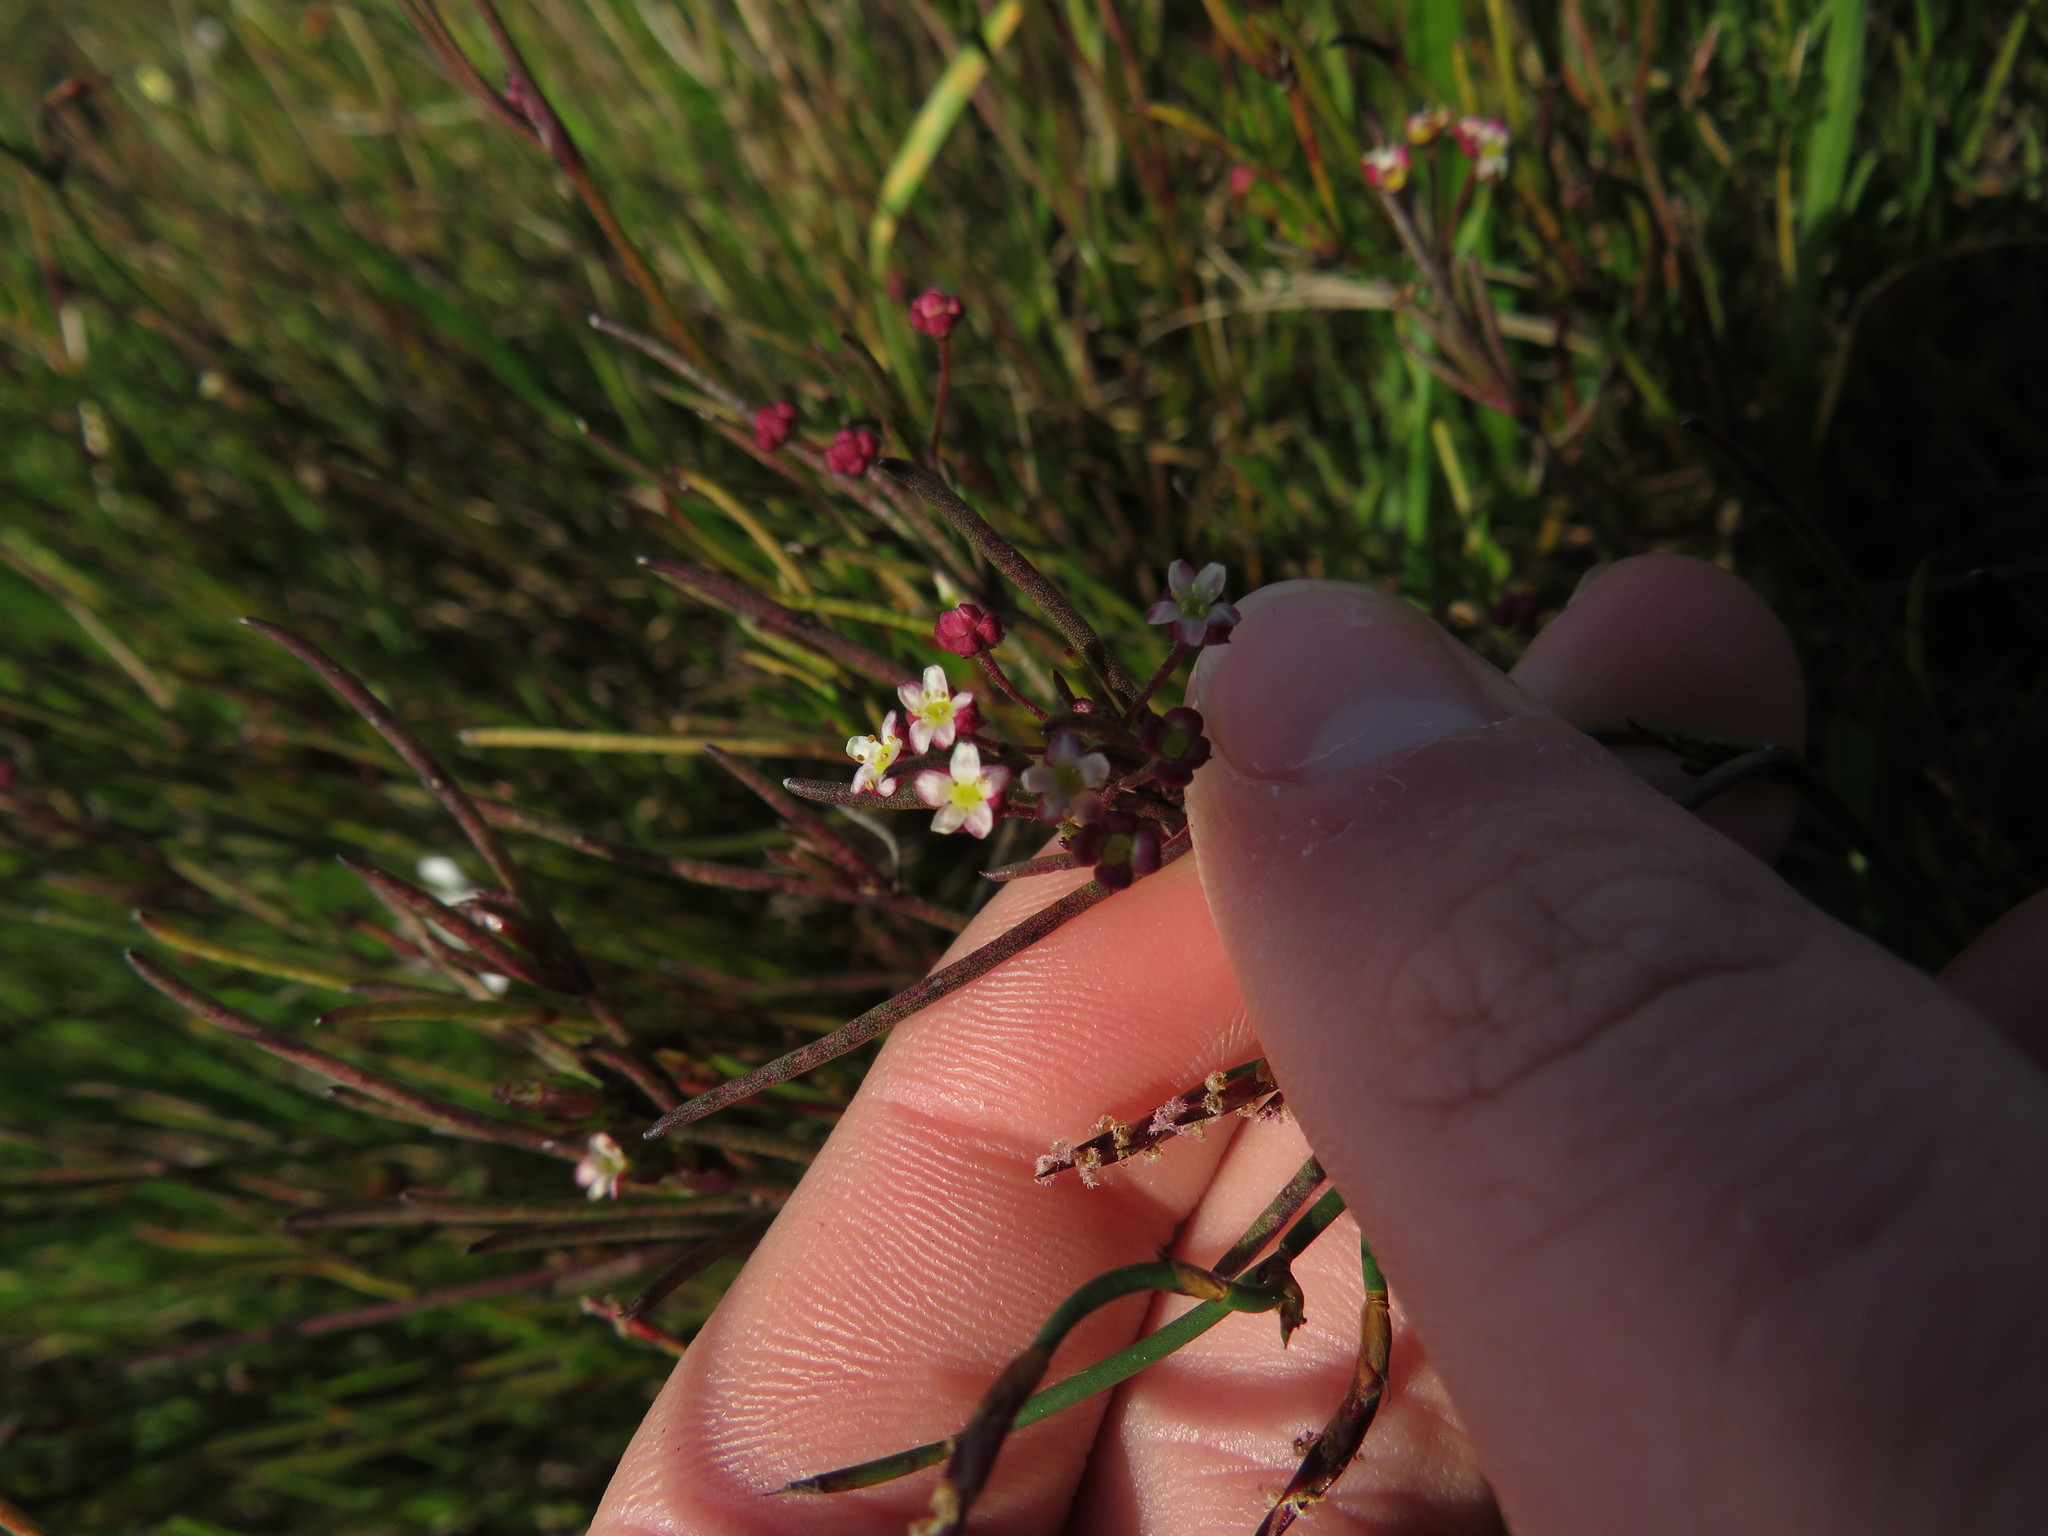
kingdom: Plantae
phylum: Tracheophyta
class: Magnoliopsida
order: Apiales
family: Apiaceae
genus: Centella
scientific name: Centella macrocarpa
